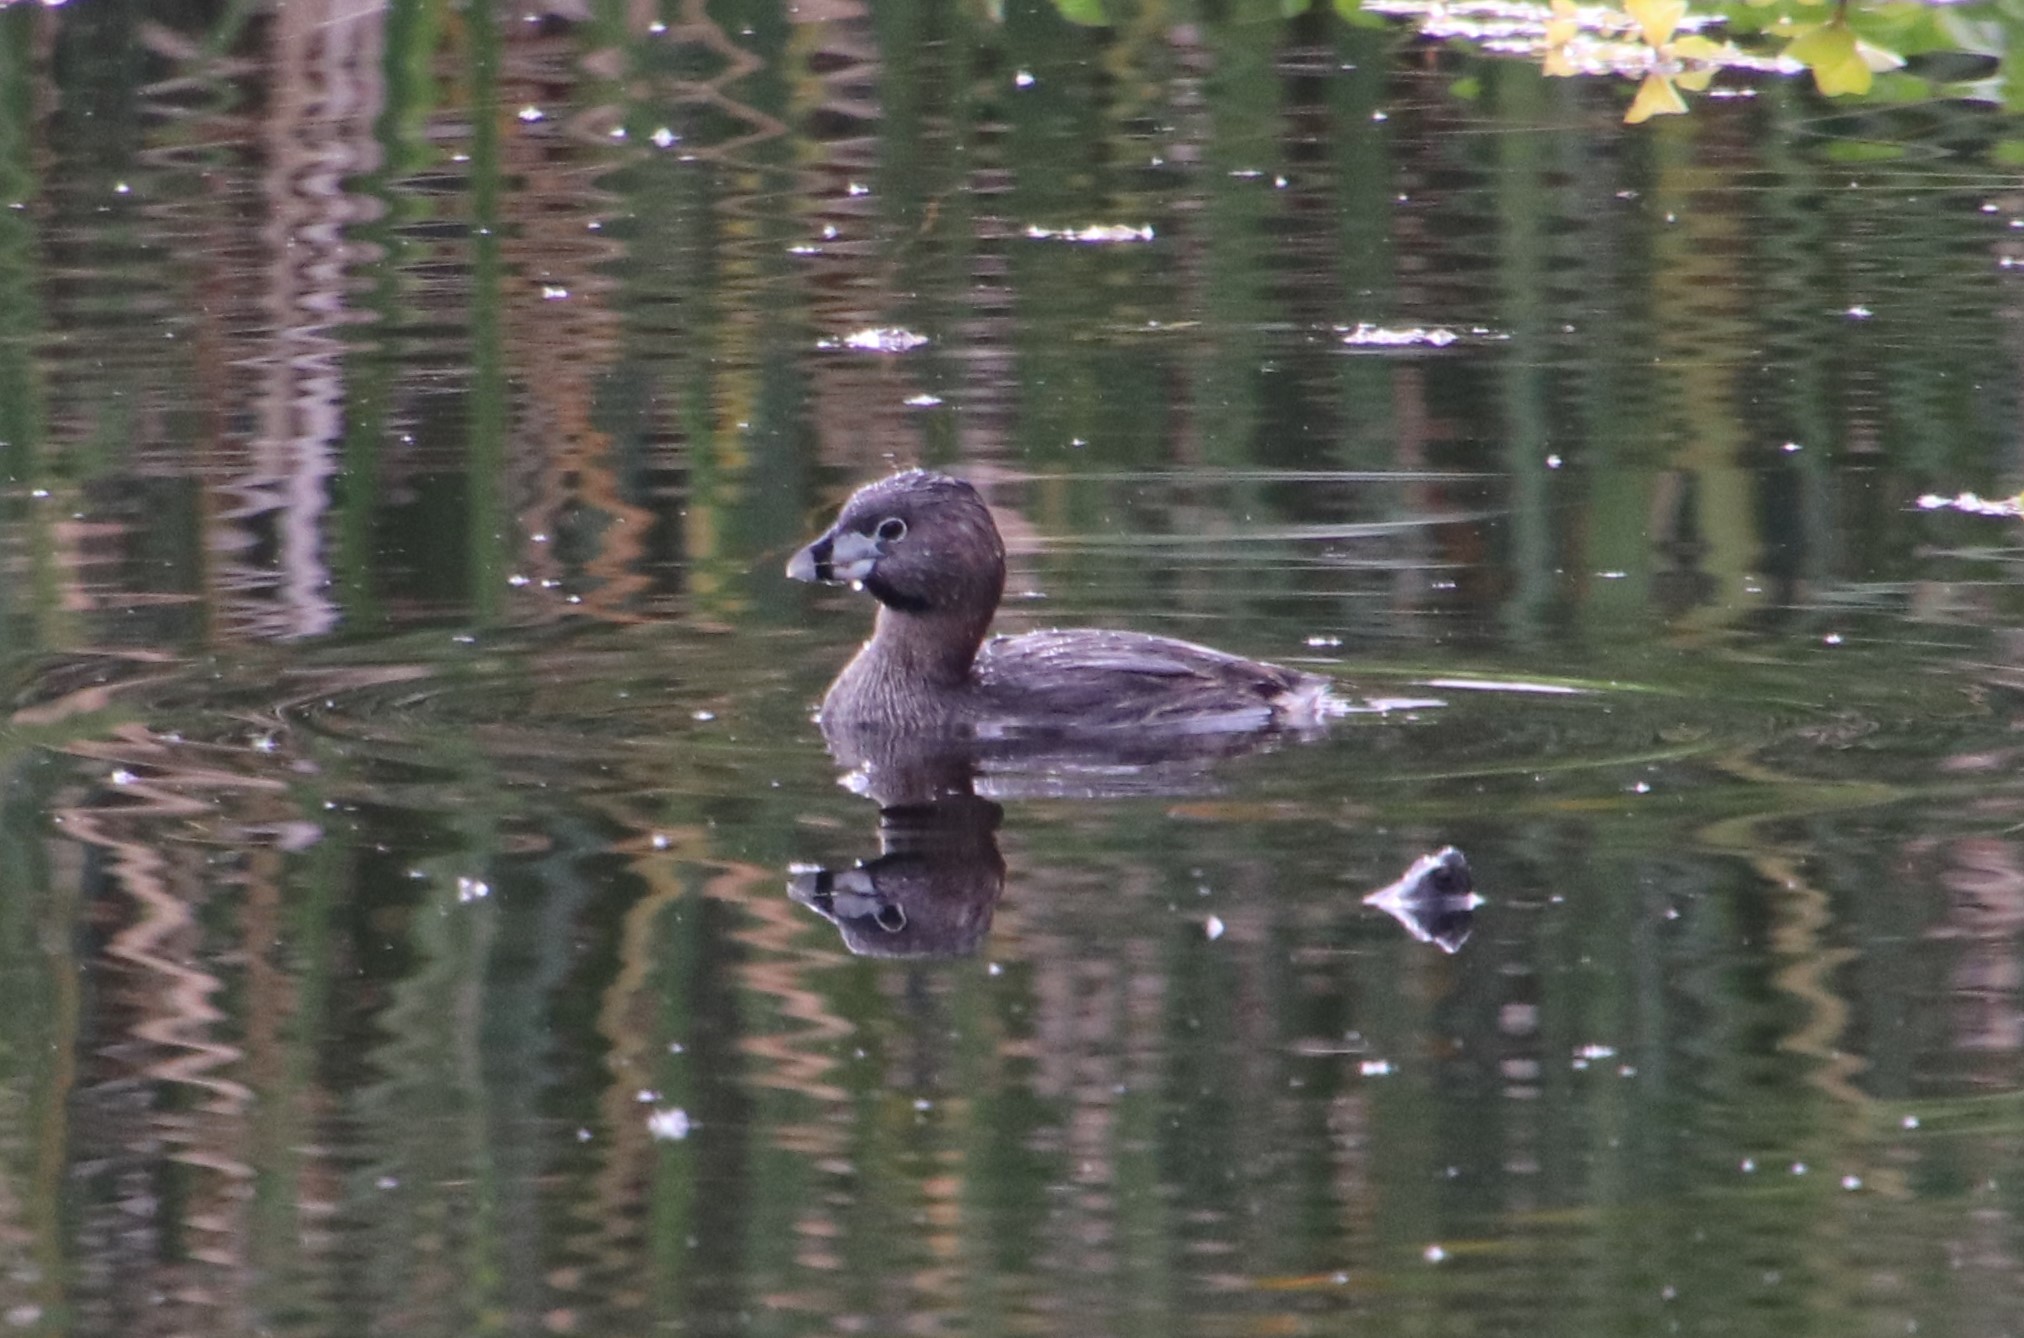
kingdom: Animalia
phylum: Chordata
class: Aves
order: Podicipediformes
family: Podicipedidae
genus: Podilymbus
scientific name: Podilymbus podiceps
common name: Pied-billed grebe
